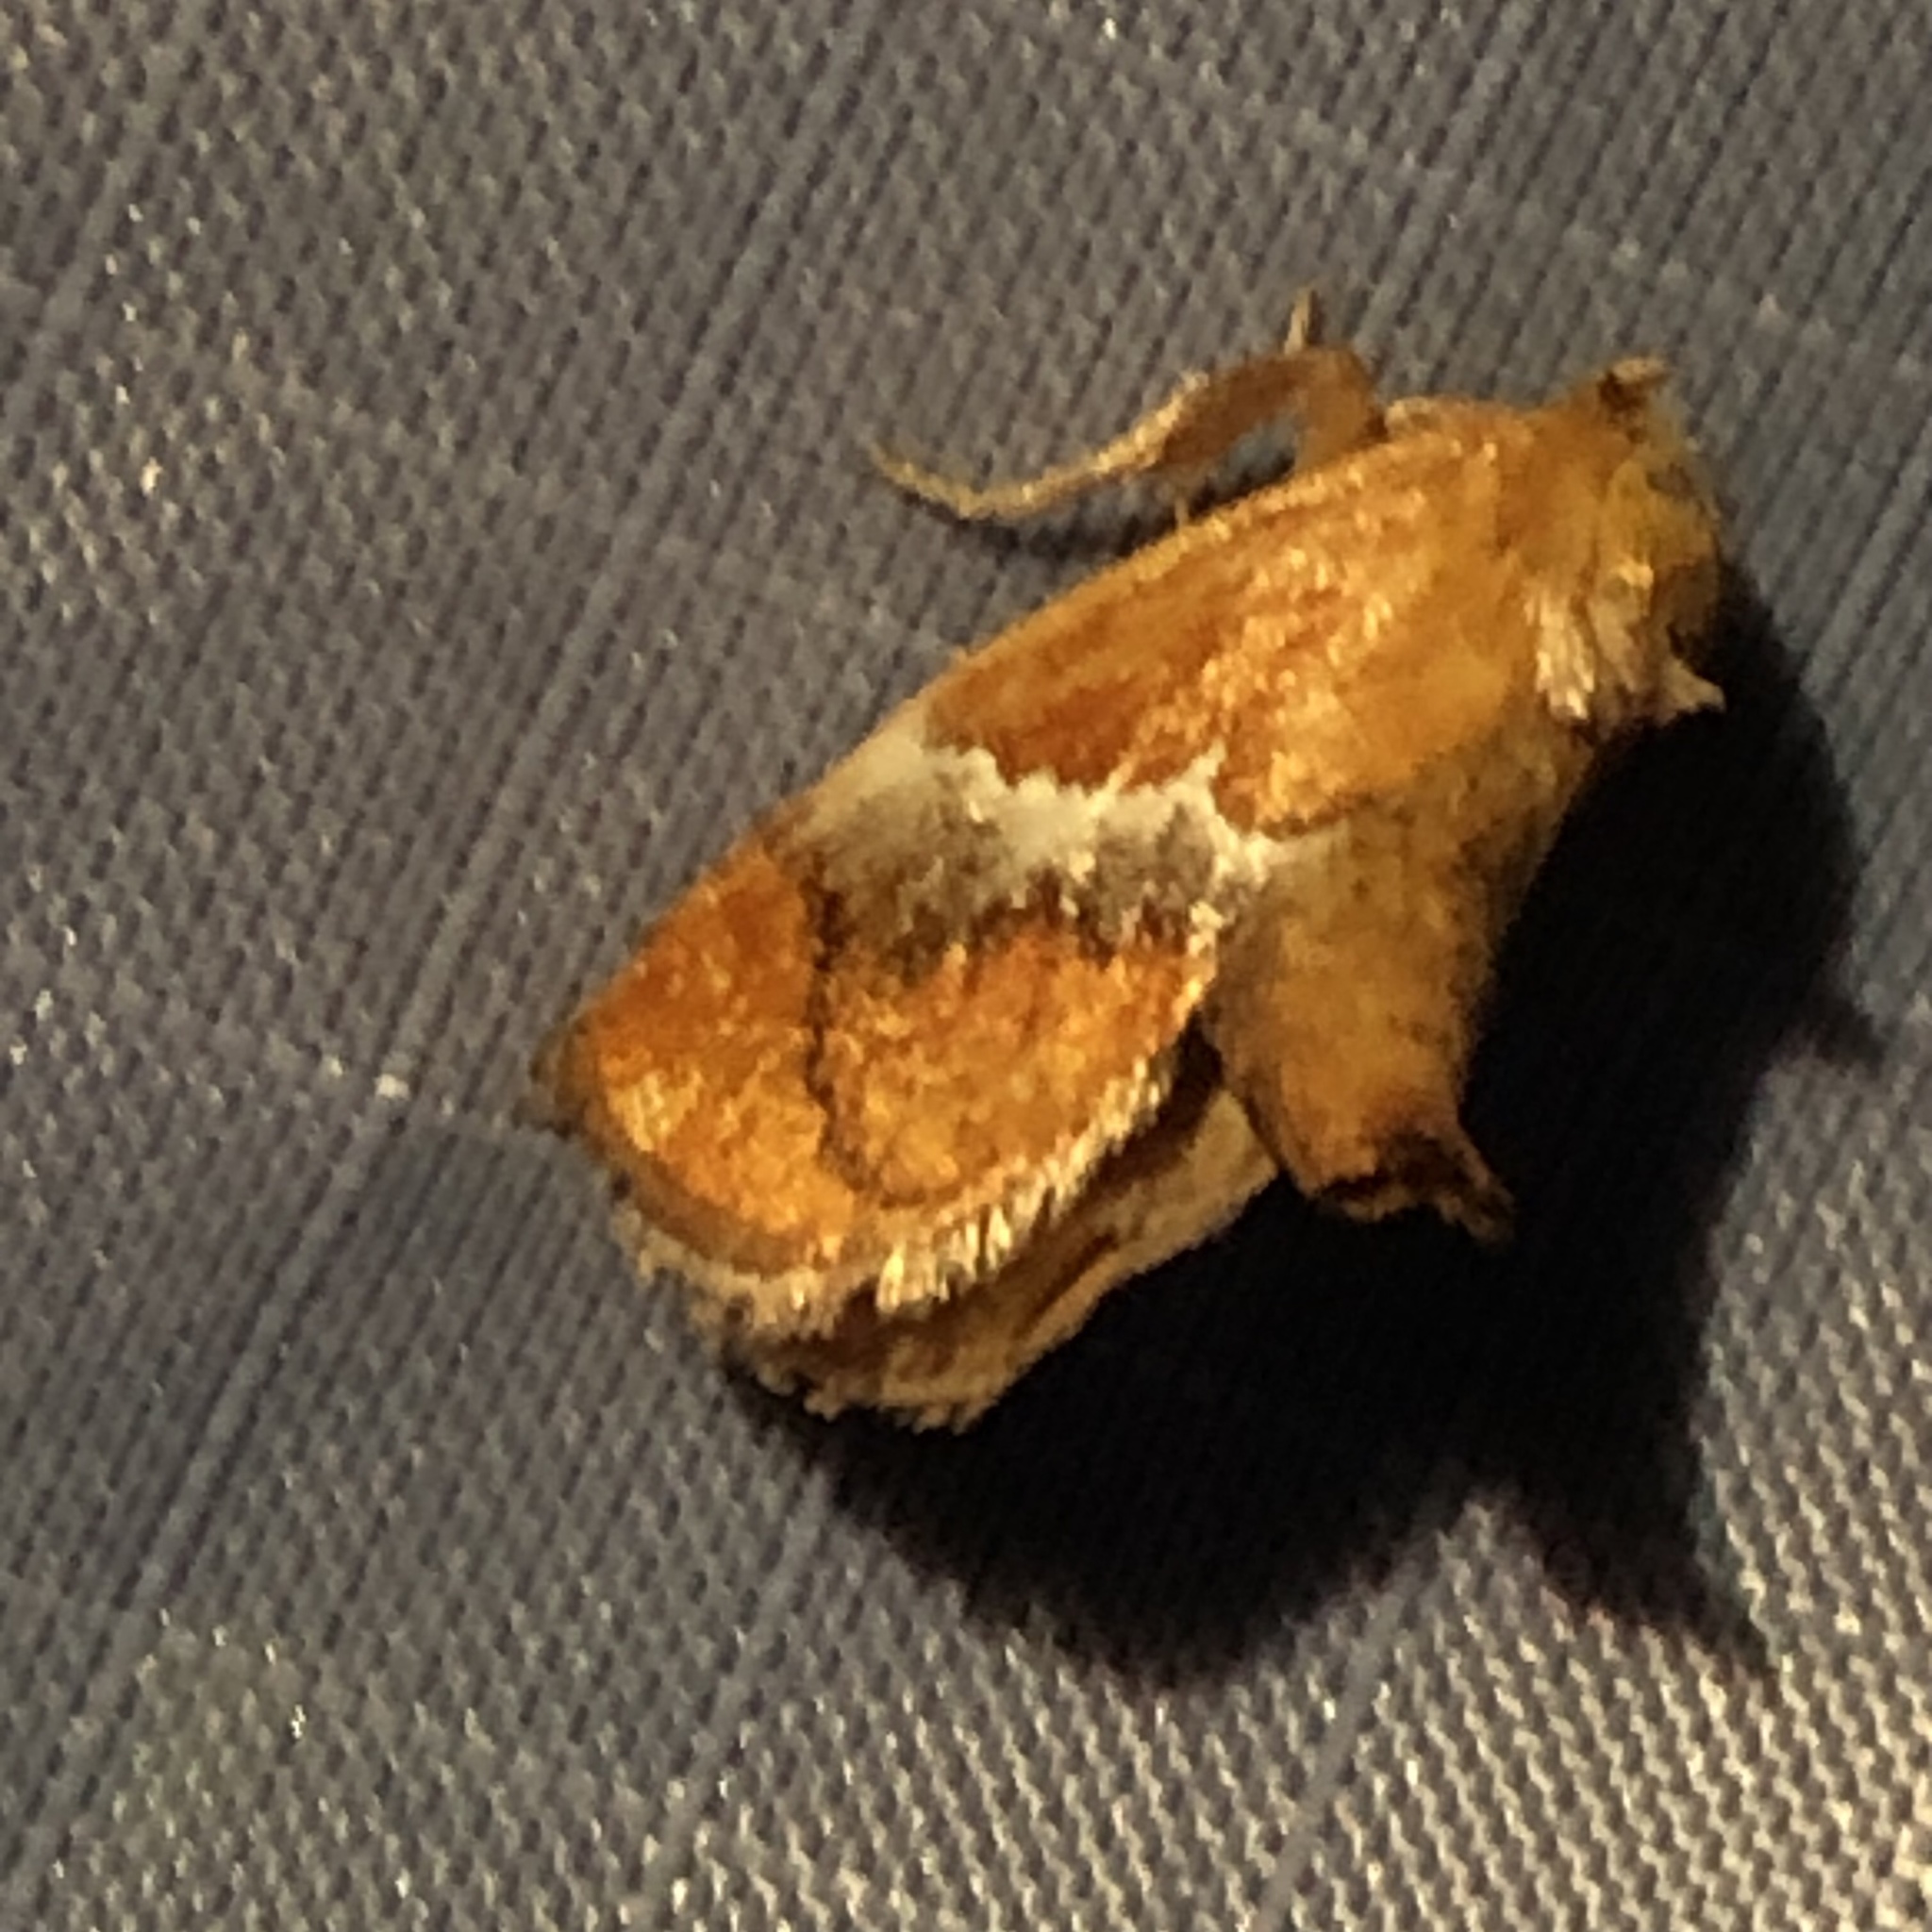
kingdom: Animalia
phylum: Arthropoda
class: Insecta
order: Lepidoptera
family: Limacodidae
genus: Lithacodes
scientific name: Lithacodes fasciola
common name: Yellow-shouldered slug moth
